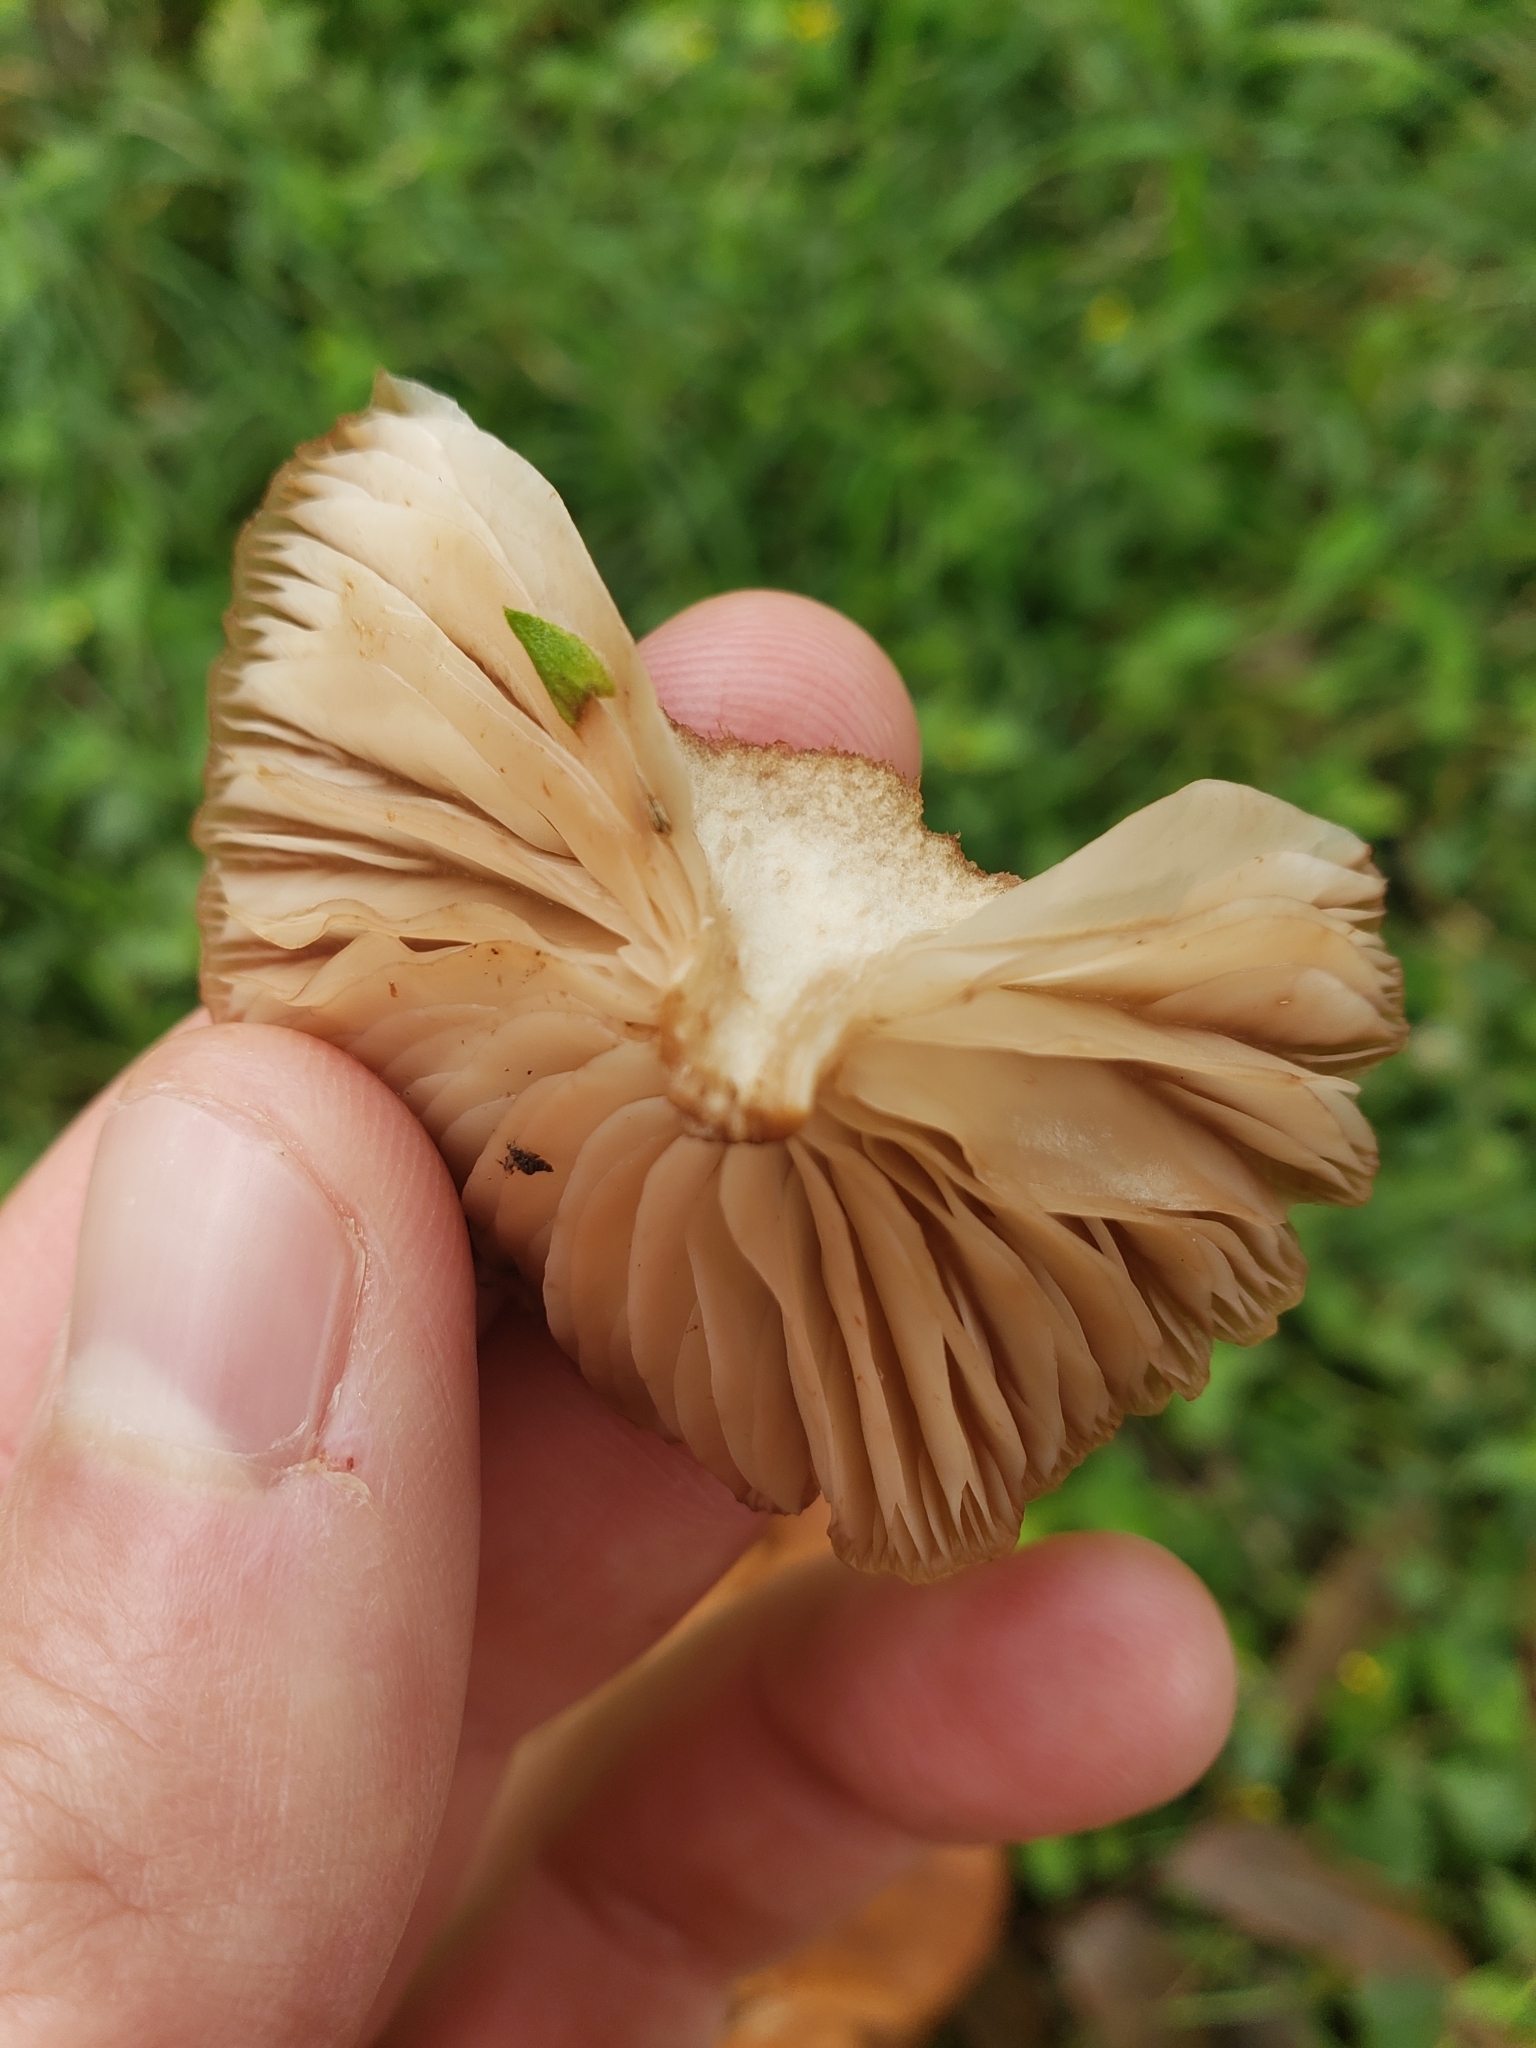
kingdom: Fungi
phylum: Basidiomycota
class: Agaricomycetes
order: Agaricales
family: Physalacriaceae
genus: Desarmillaria
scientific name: Desarmillaria caespitosa
